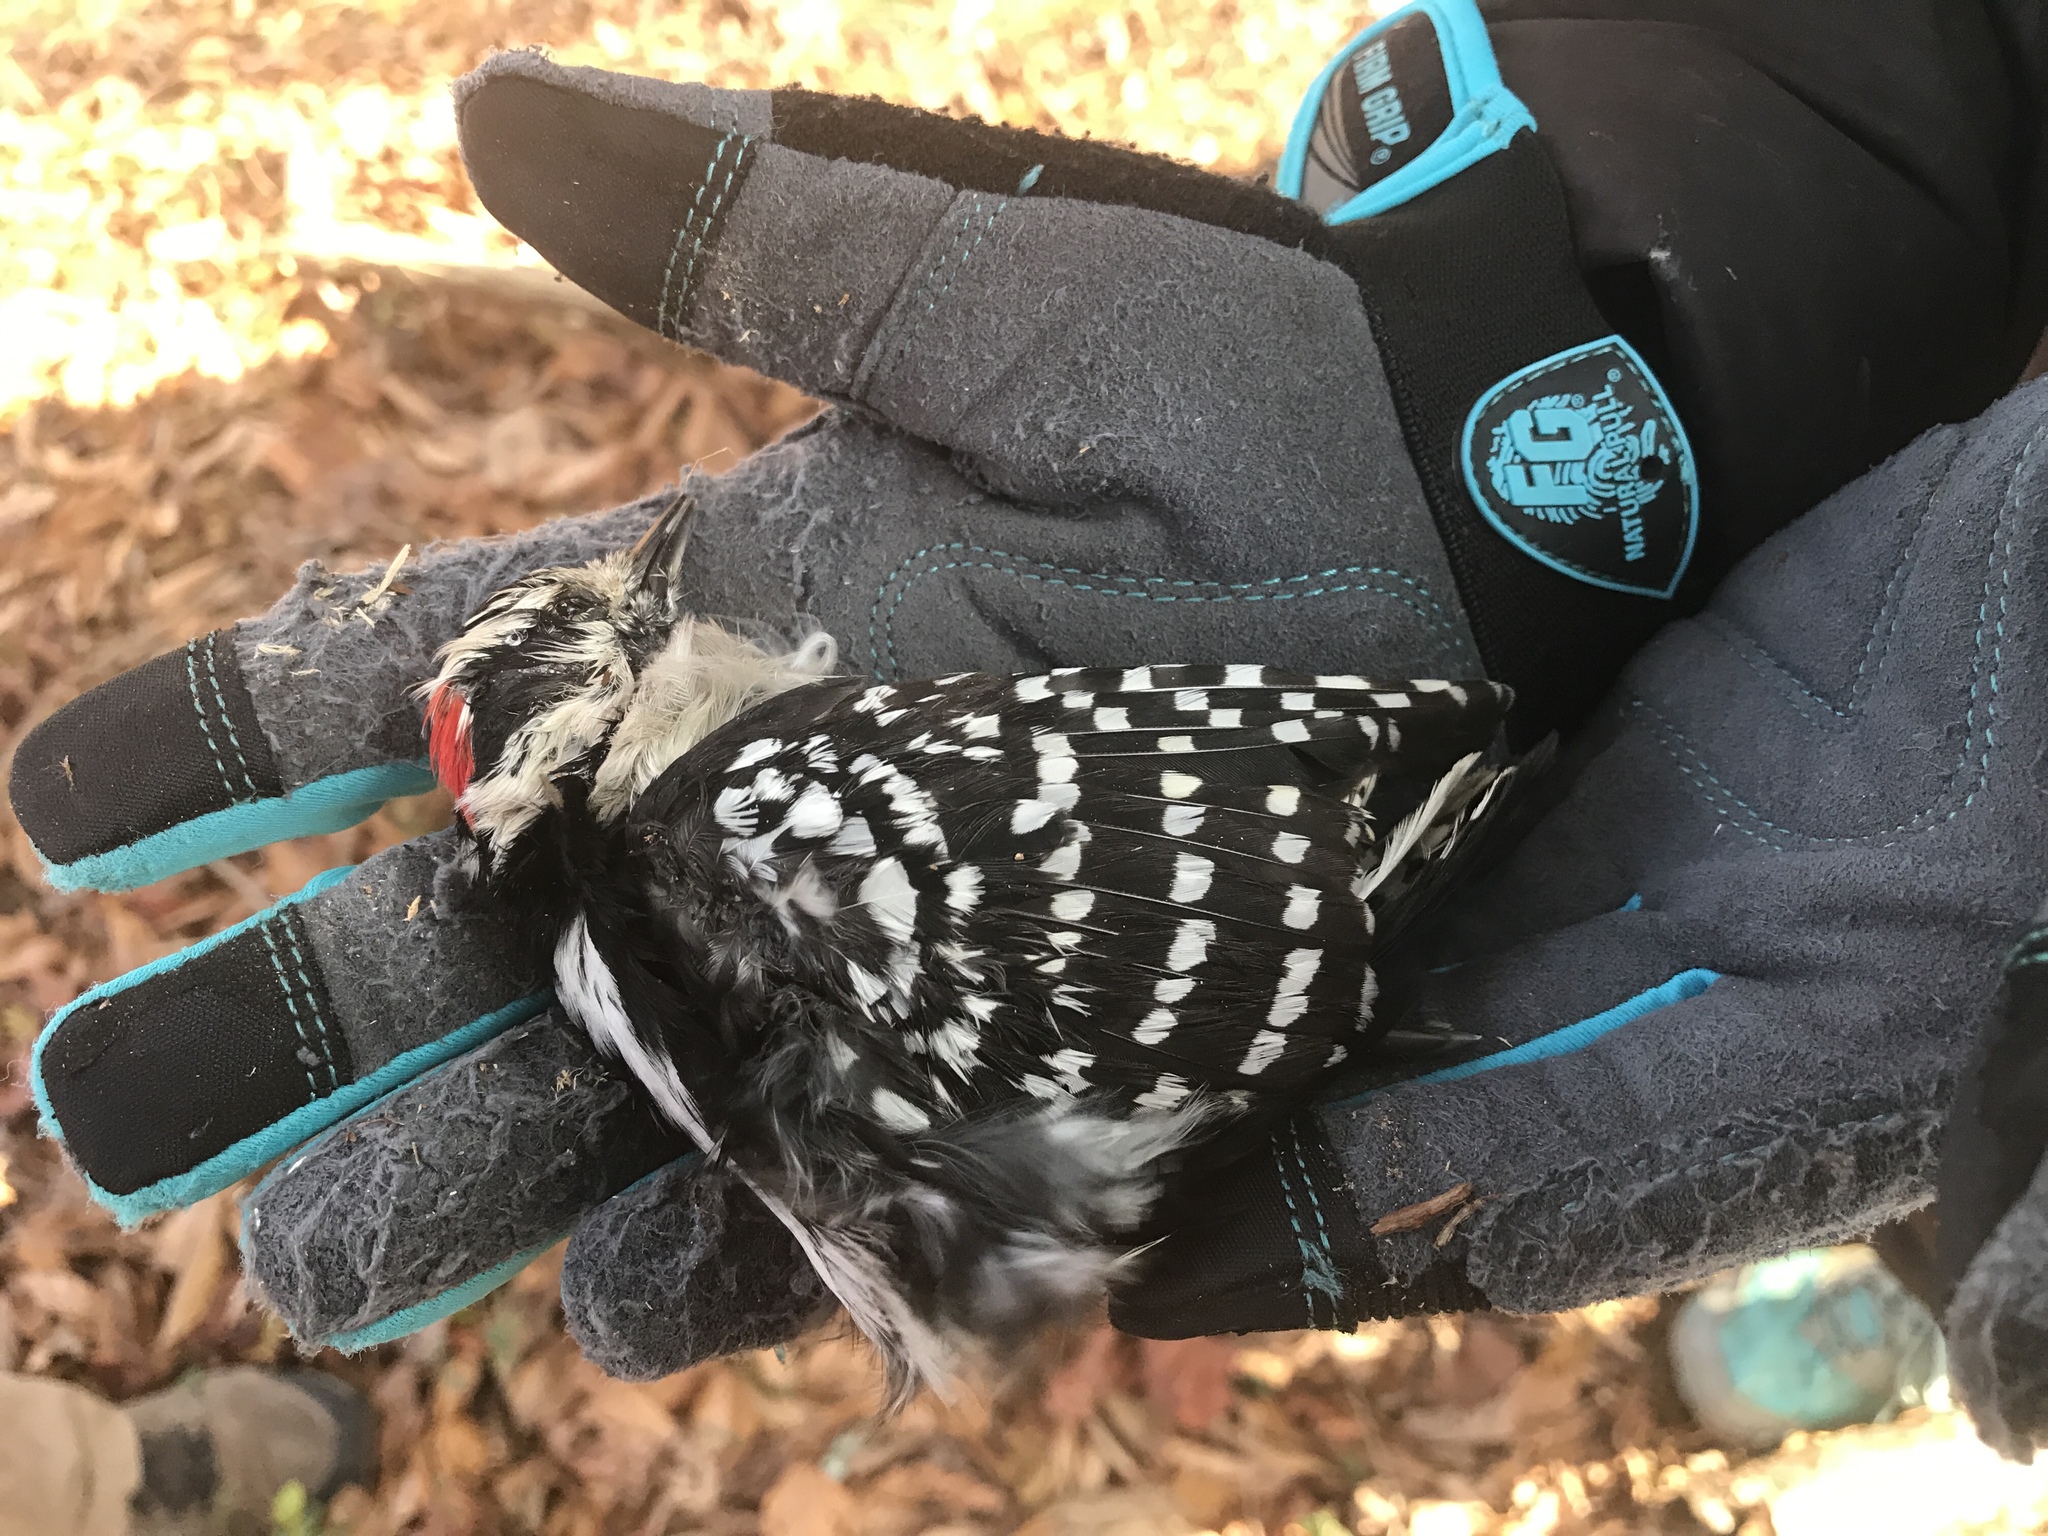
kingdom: Animalia
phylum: Chordata
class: Aves
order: Piciformes
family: Picidae
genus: Dryobates
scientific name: Dryobates pubescens
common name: Downy woodpecker
